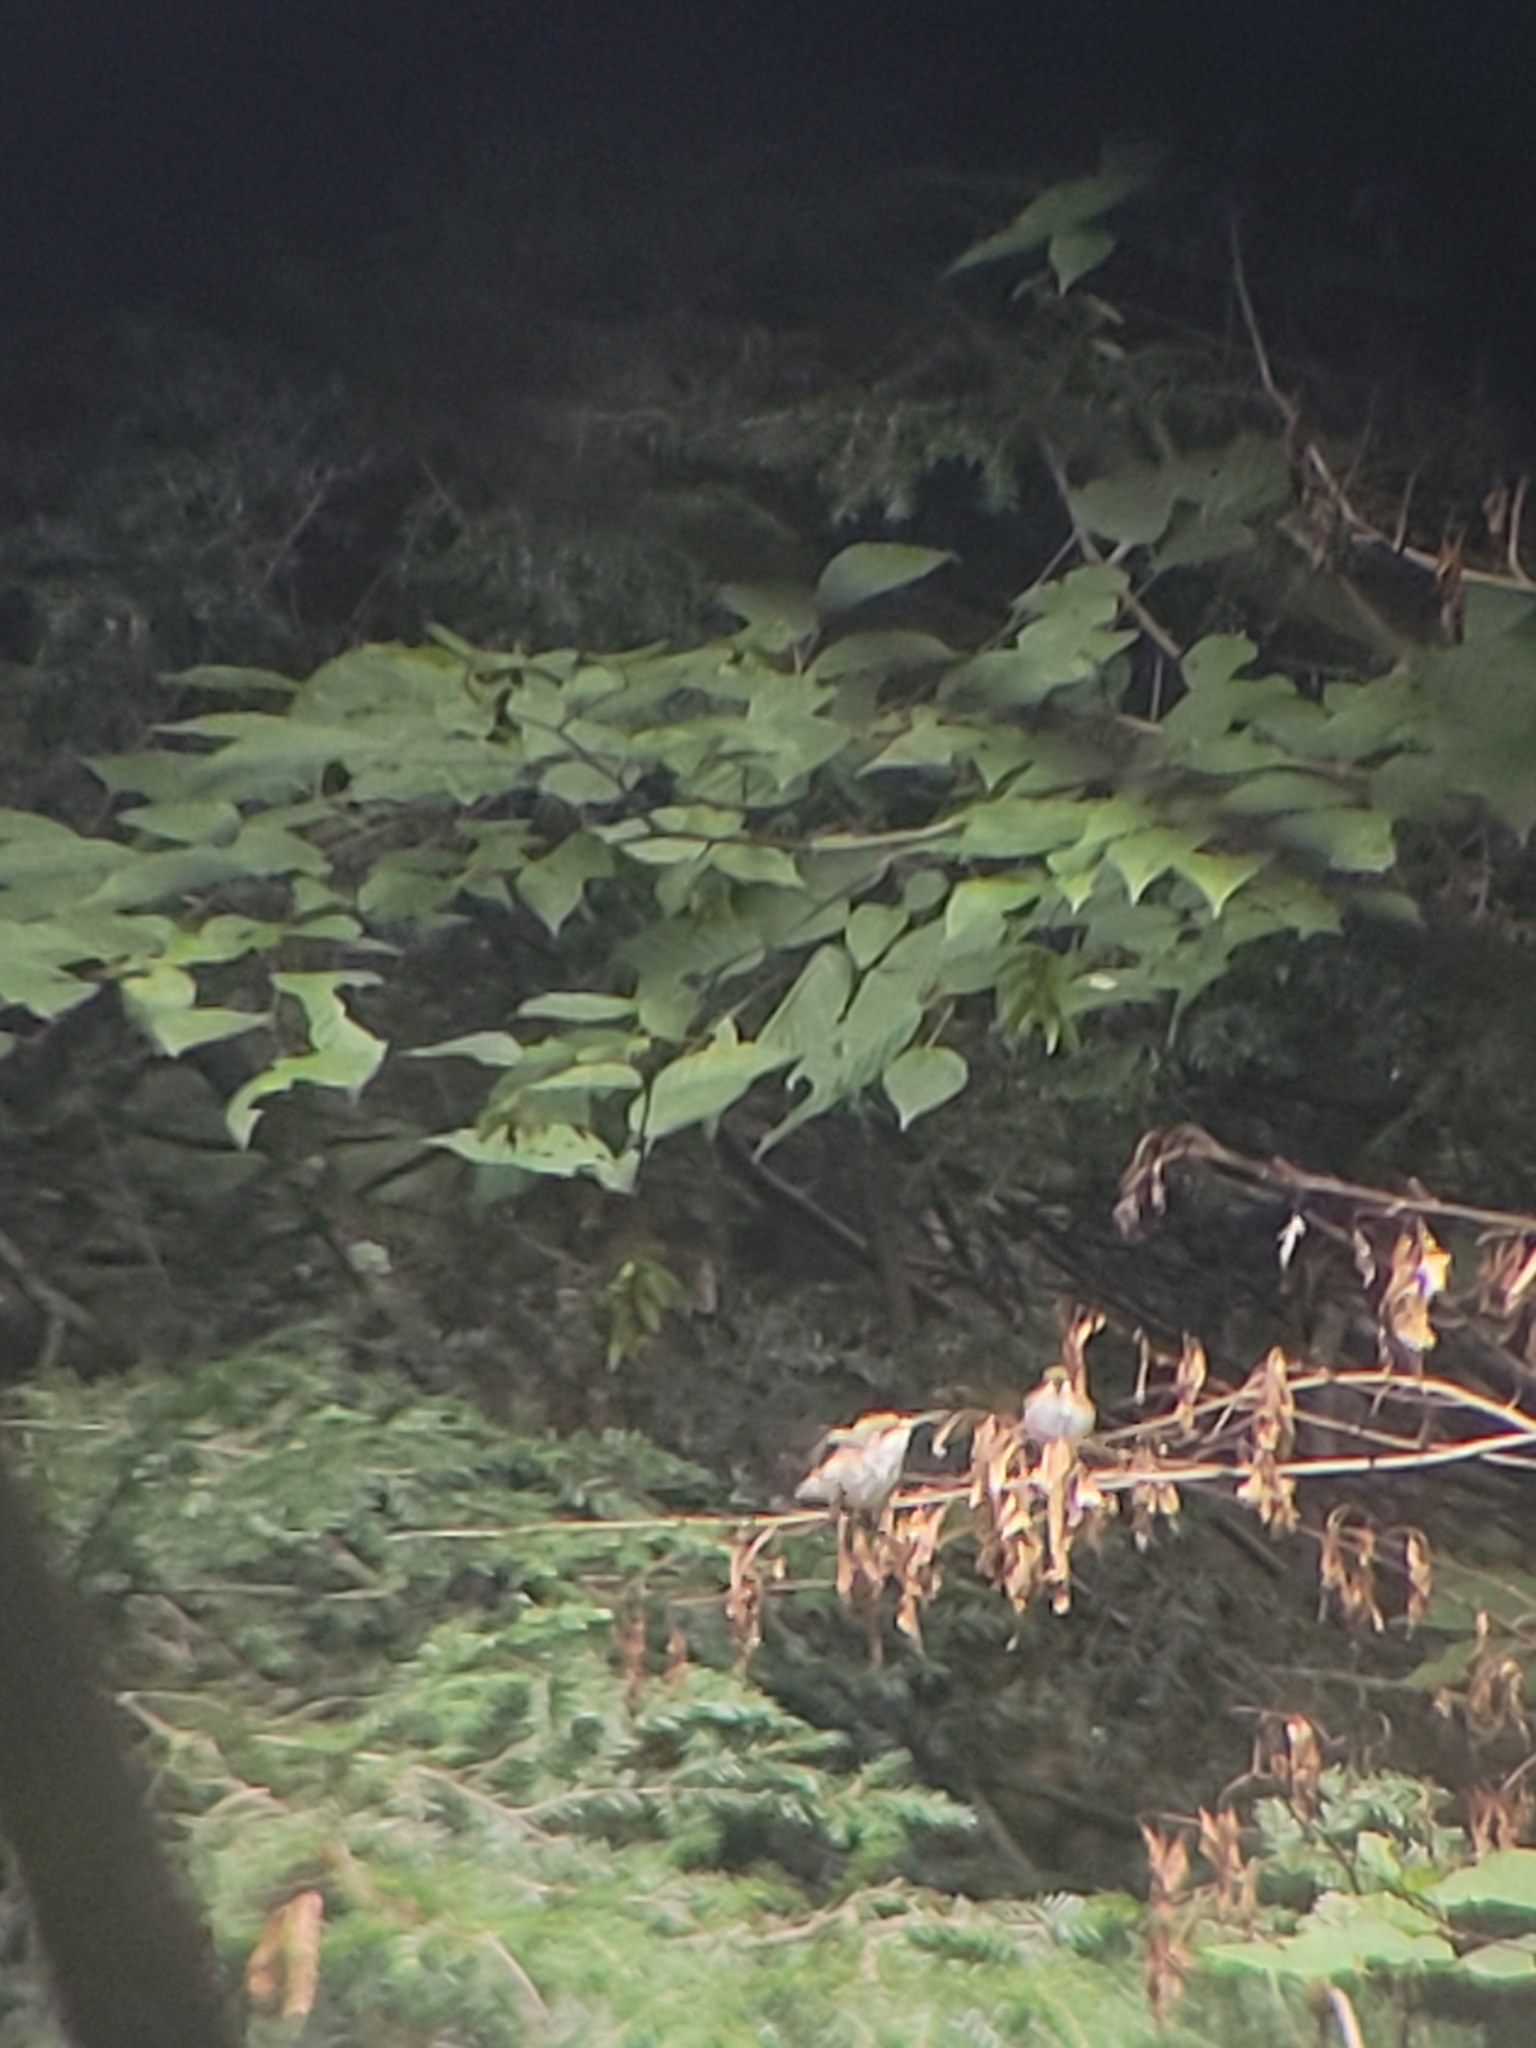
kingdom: Animalia
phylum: Chordata
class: Aves
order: Apodiformes
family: Trochilidae
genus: Archilochus
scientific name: Archilochus colubris
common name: Ruby-throated hummingbird
